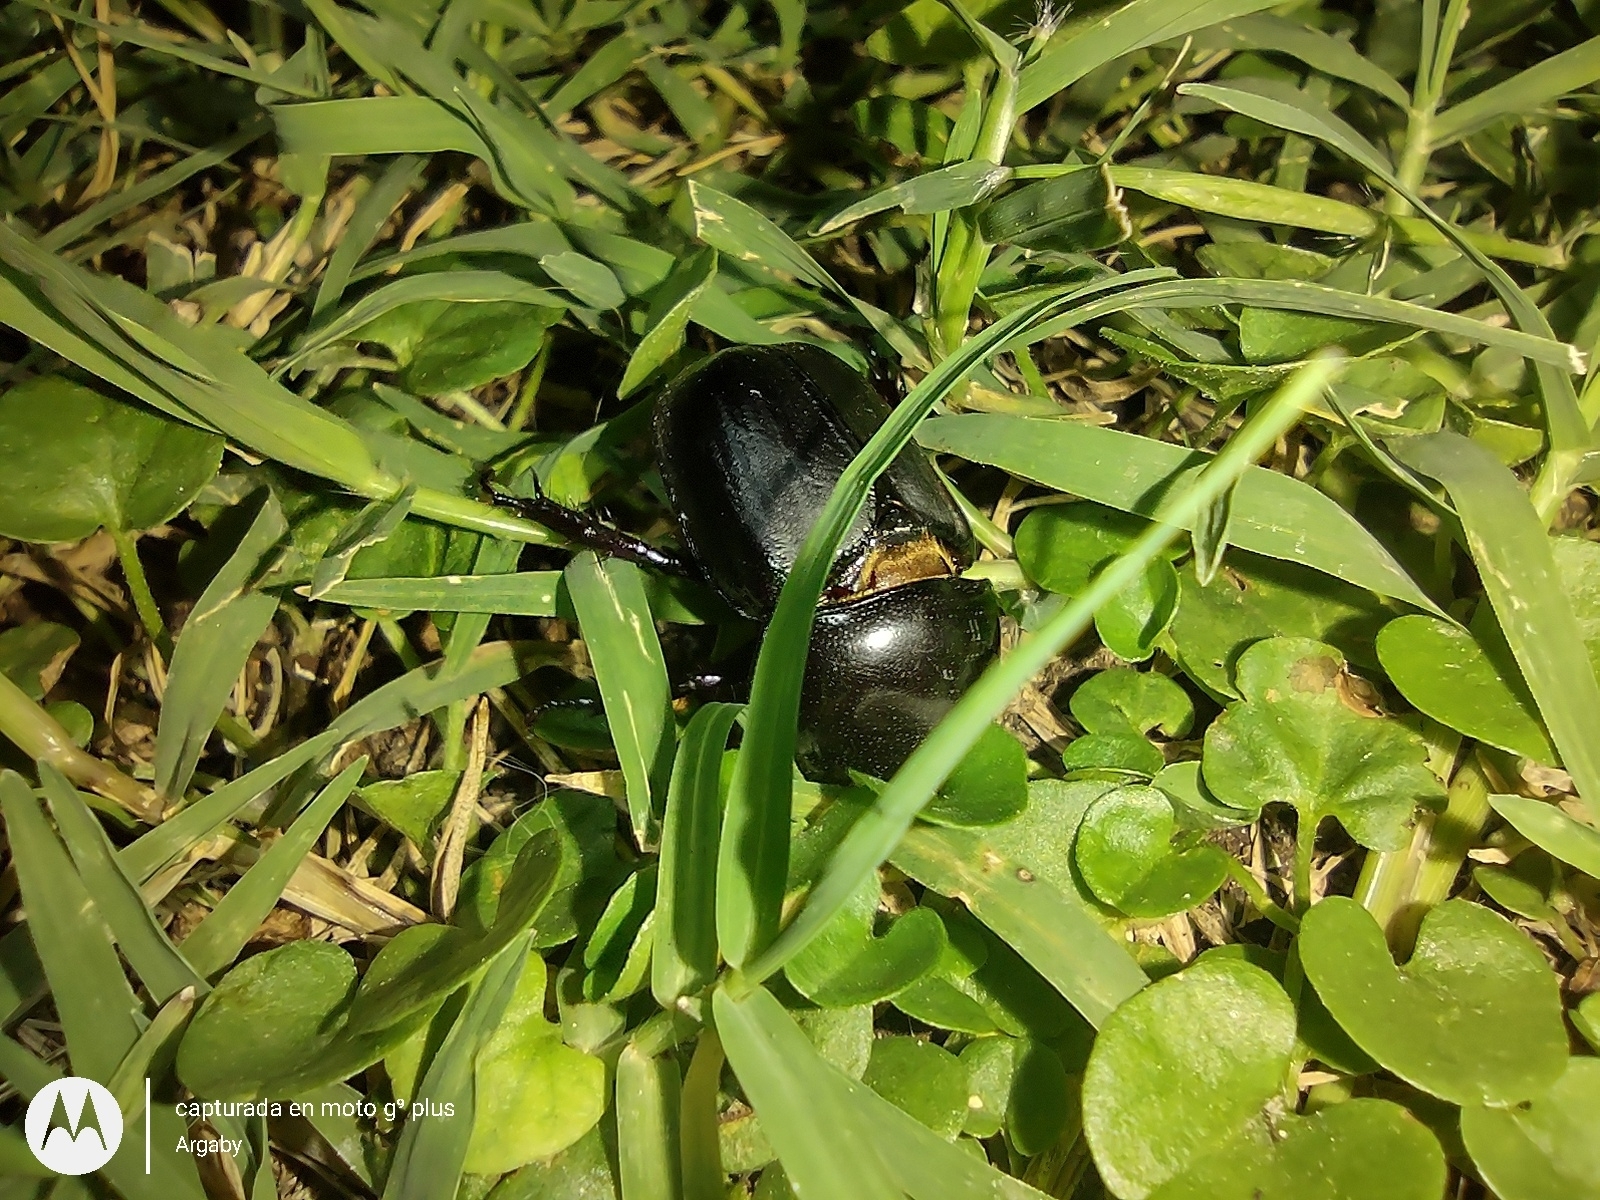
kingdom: Animalia
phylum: Arthropoda
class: Insecta
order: Coleoptera
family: Scarabaeidae
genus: Diloboderus
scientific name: Diloboderus abderus
